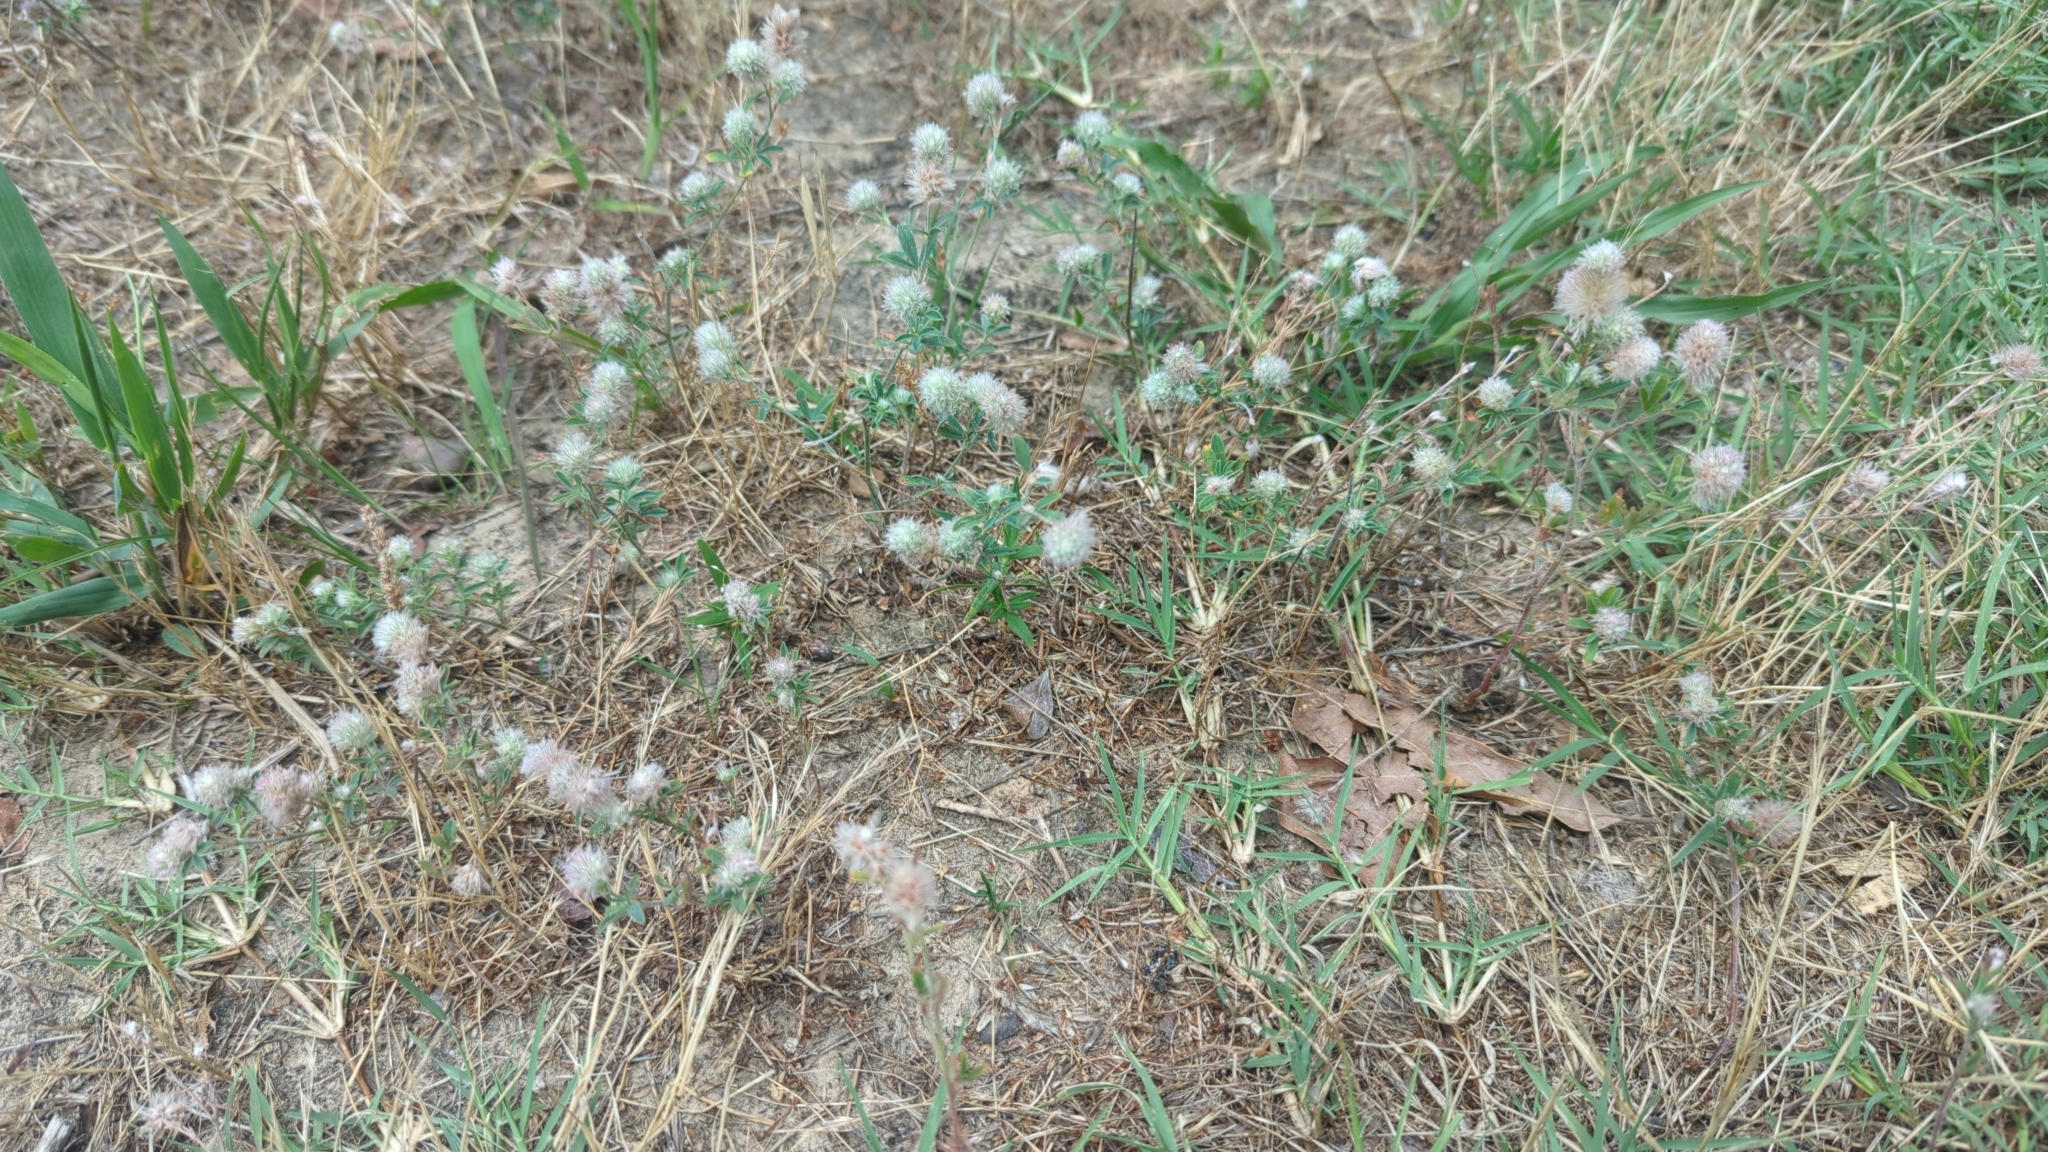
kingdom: Plantae
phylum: Tracheophyta
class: Magnoliopsida
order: Fabales
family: Fabaceae
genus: Trifolium
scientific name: Trifolium arvense
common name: Hare's-foot clover
